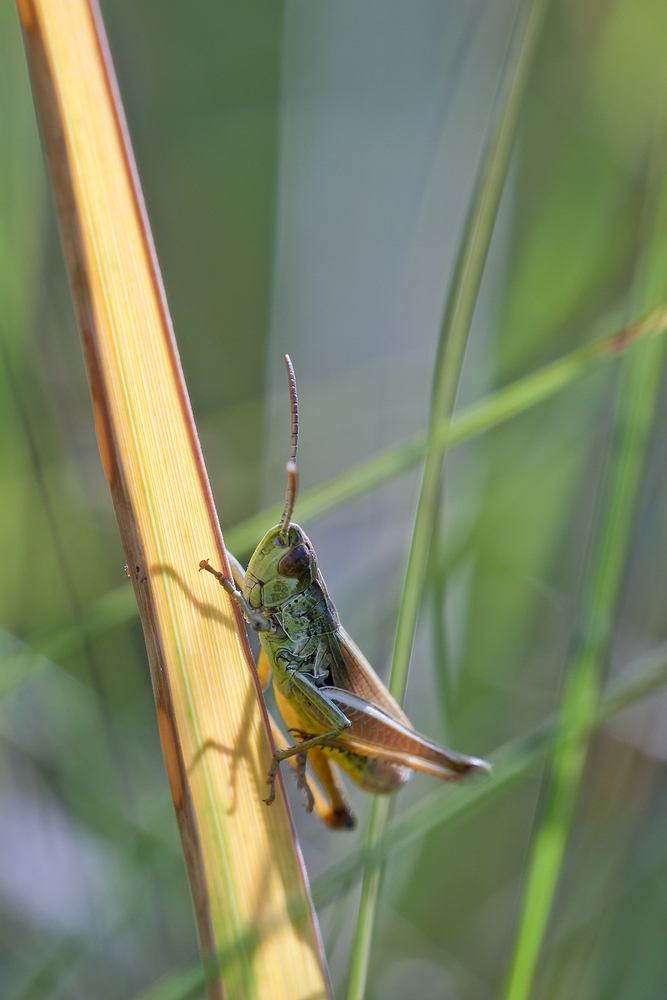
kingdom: Animalia
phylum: Arthropoda
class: Insecta
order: Orthoptera
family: Acrididae
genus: Pseudochorthippus
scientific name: Pseudochorthippus parallelus
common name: Meadow grasshopper
